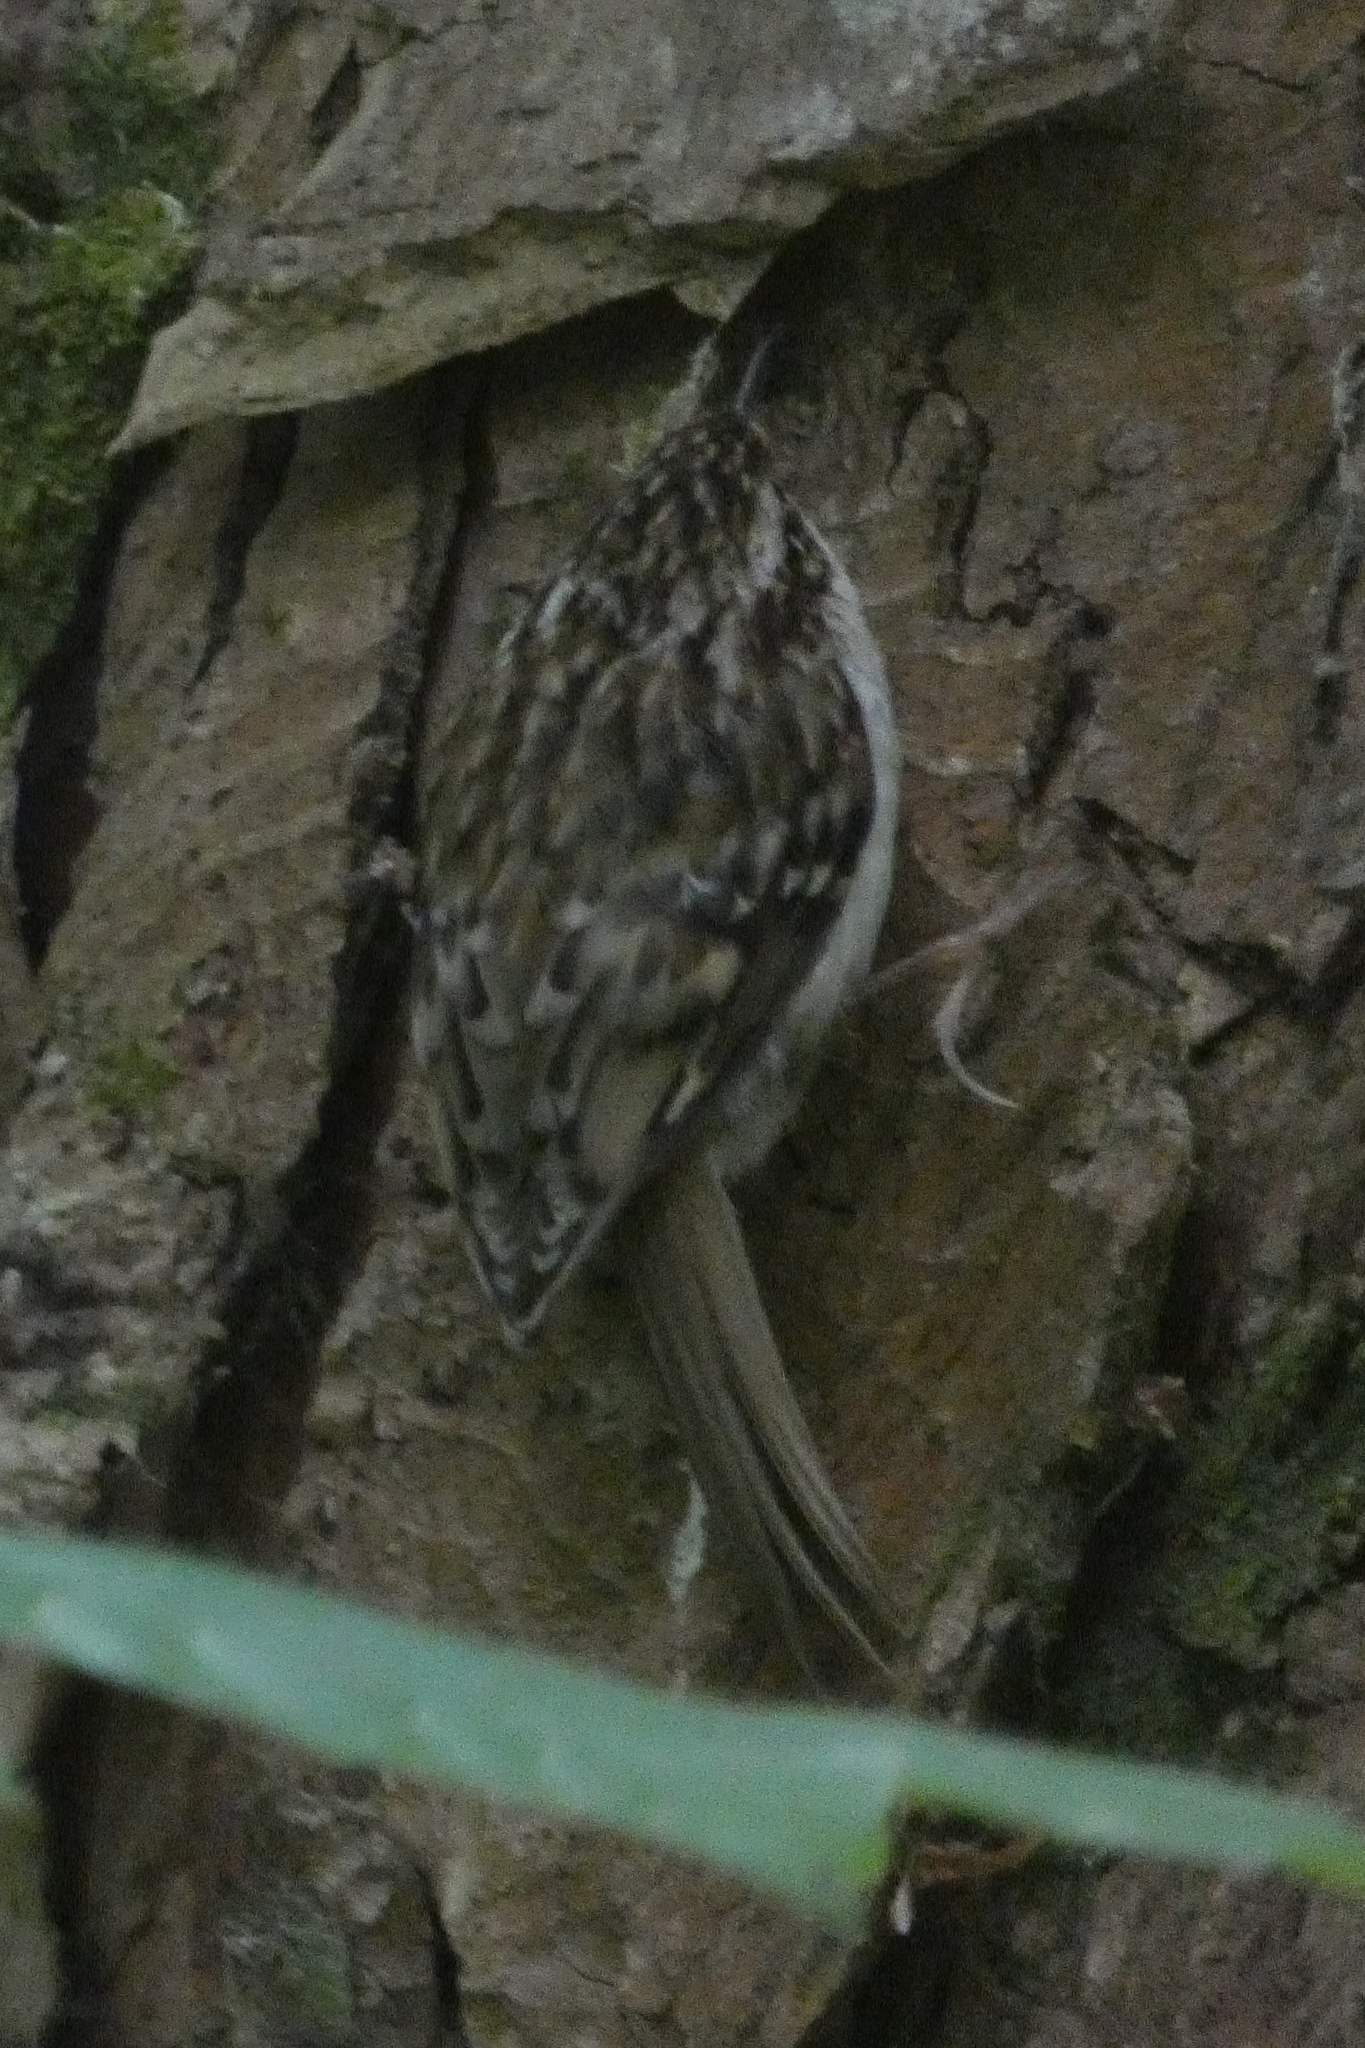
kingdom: Animalia
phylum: Chordata
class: Aves
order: Passeriformes
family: Certhiidae
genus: Certhia
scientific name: Certhia familiaris
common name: Eurasian treecreeper
